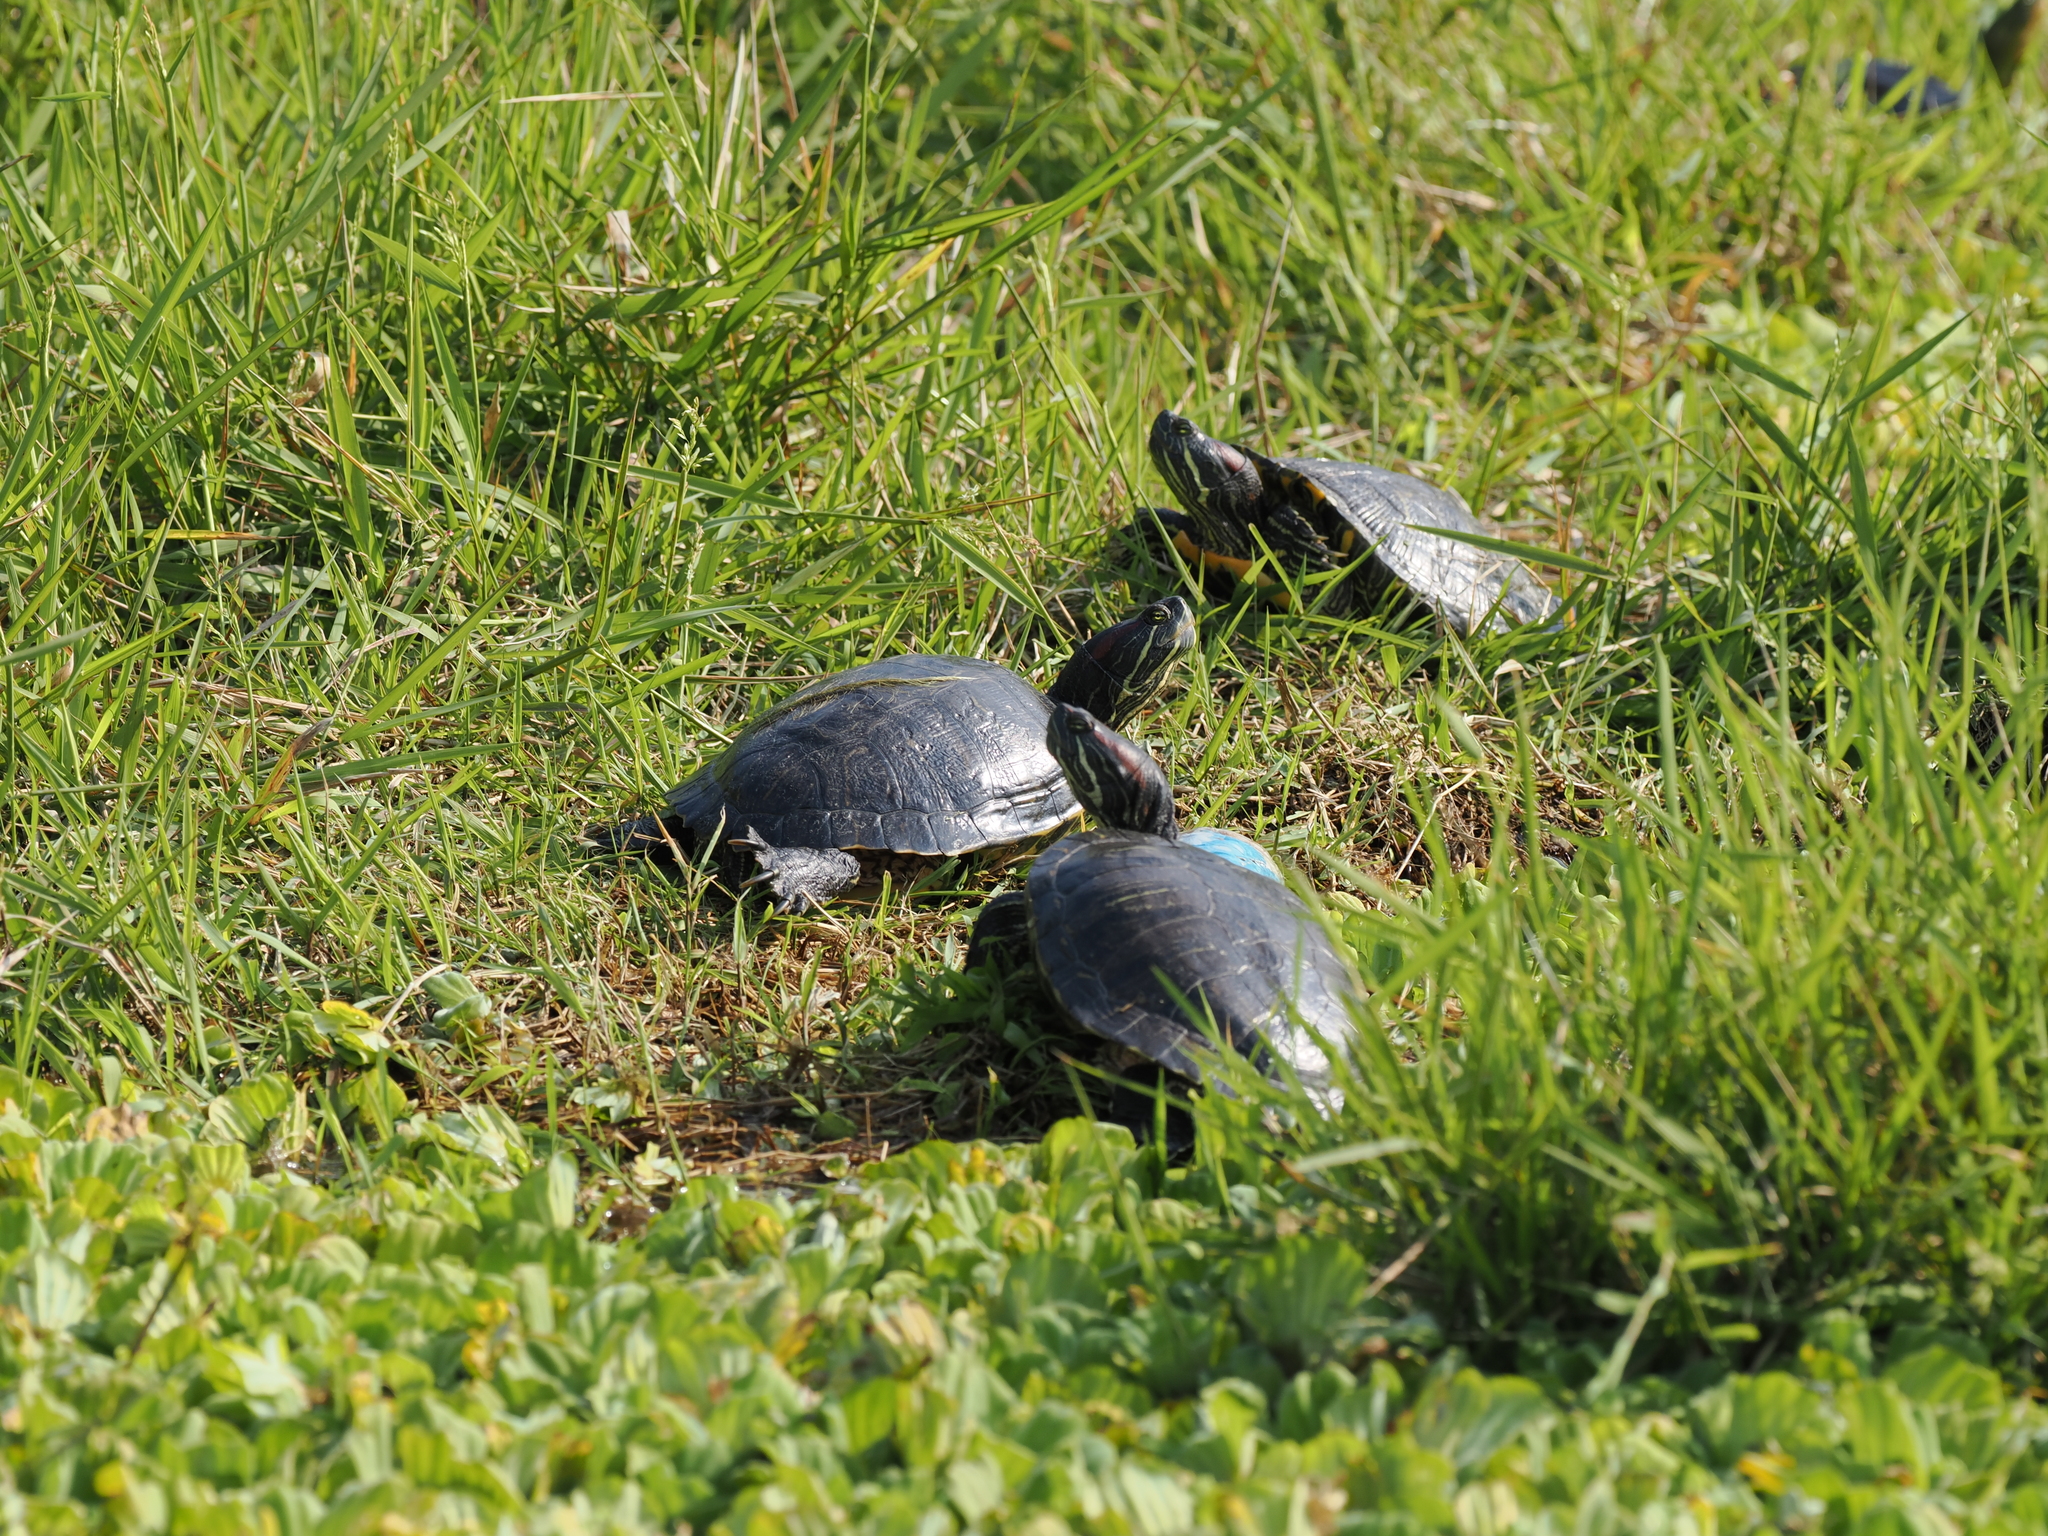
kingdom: Animalia
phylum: Chordata
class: Testudines
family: Emydidae
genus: Trachemys
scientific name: Trachemys scripta
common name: Slider
